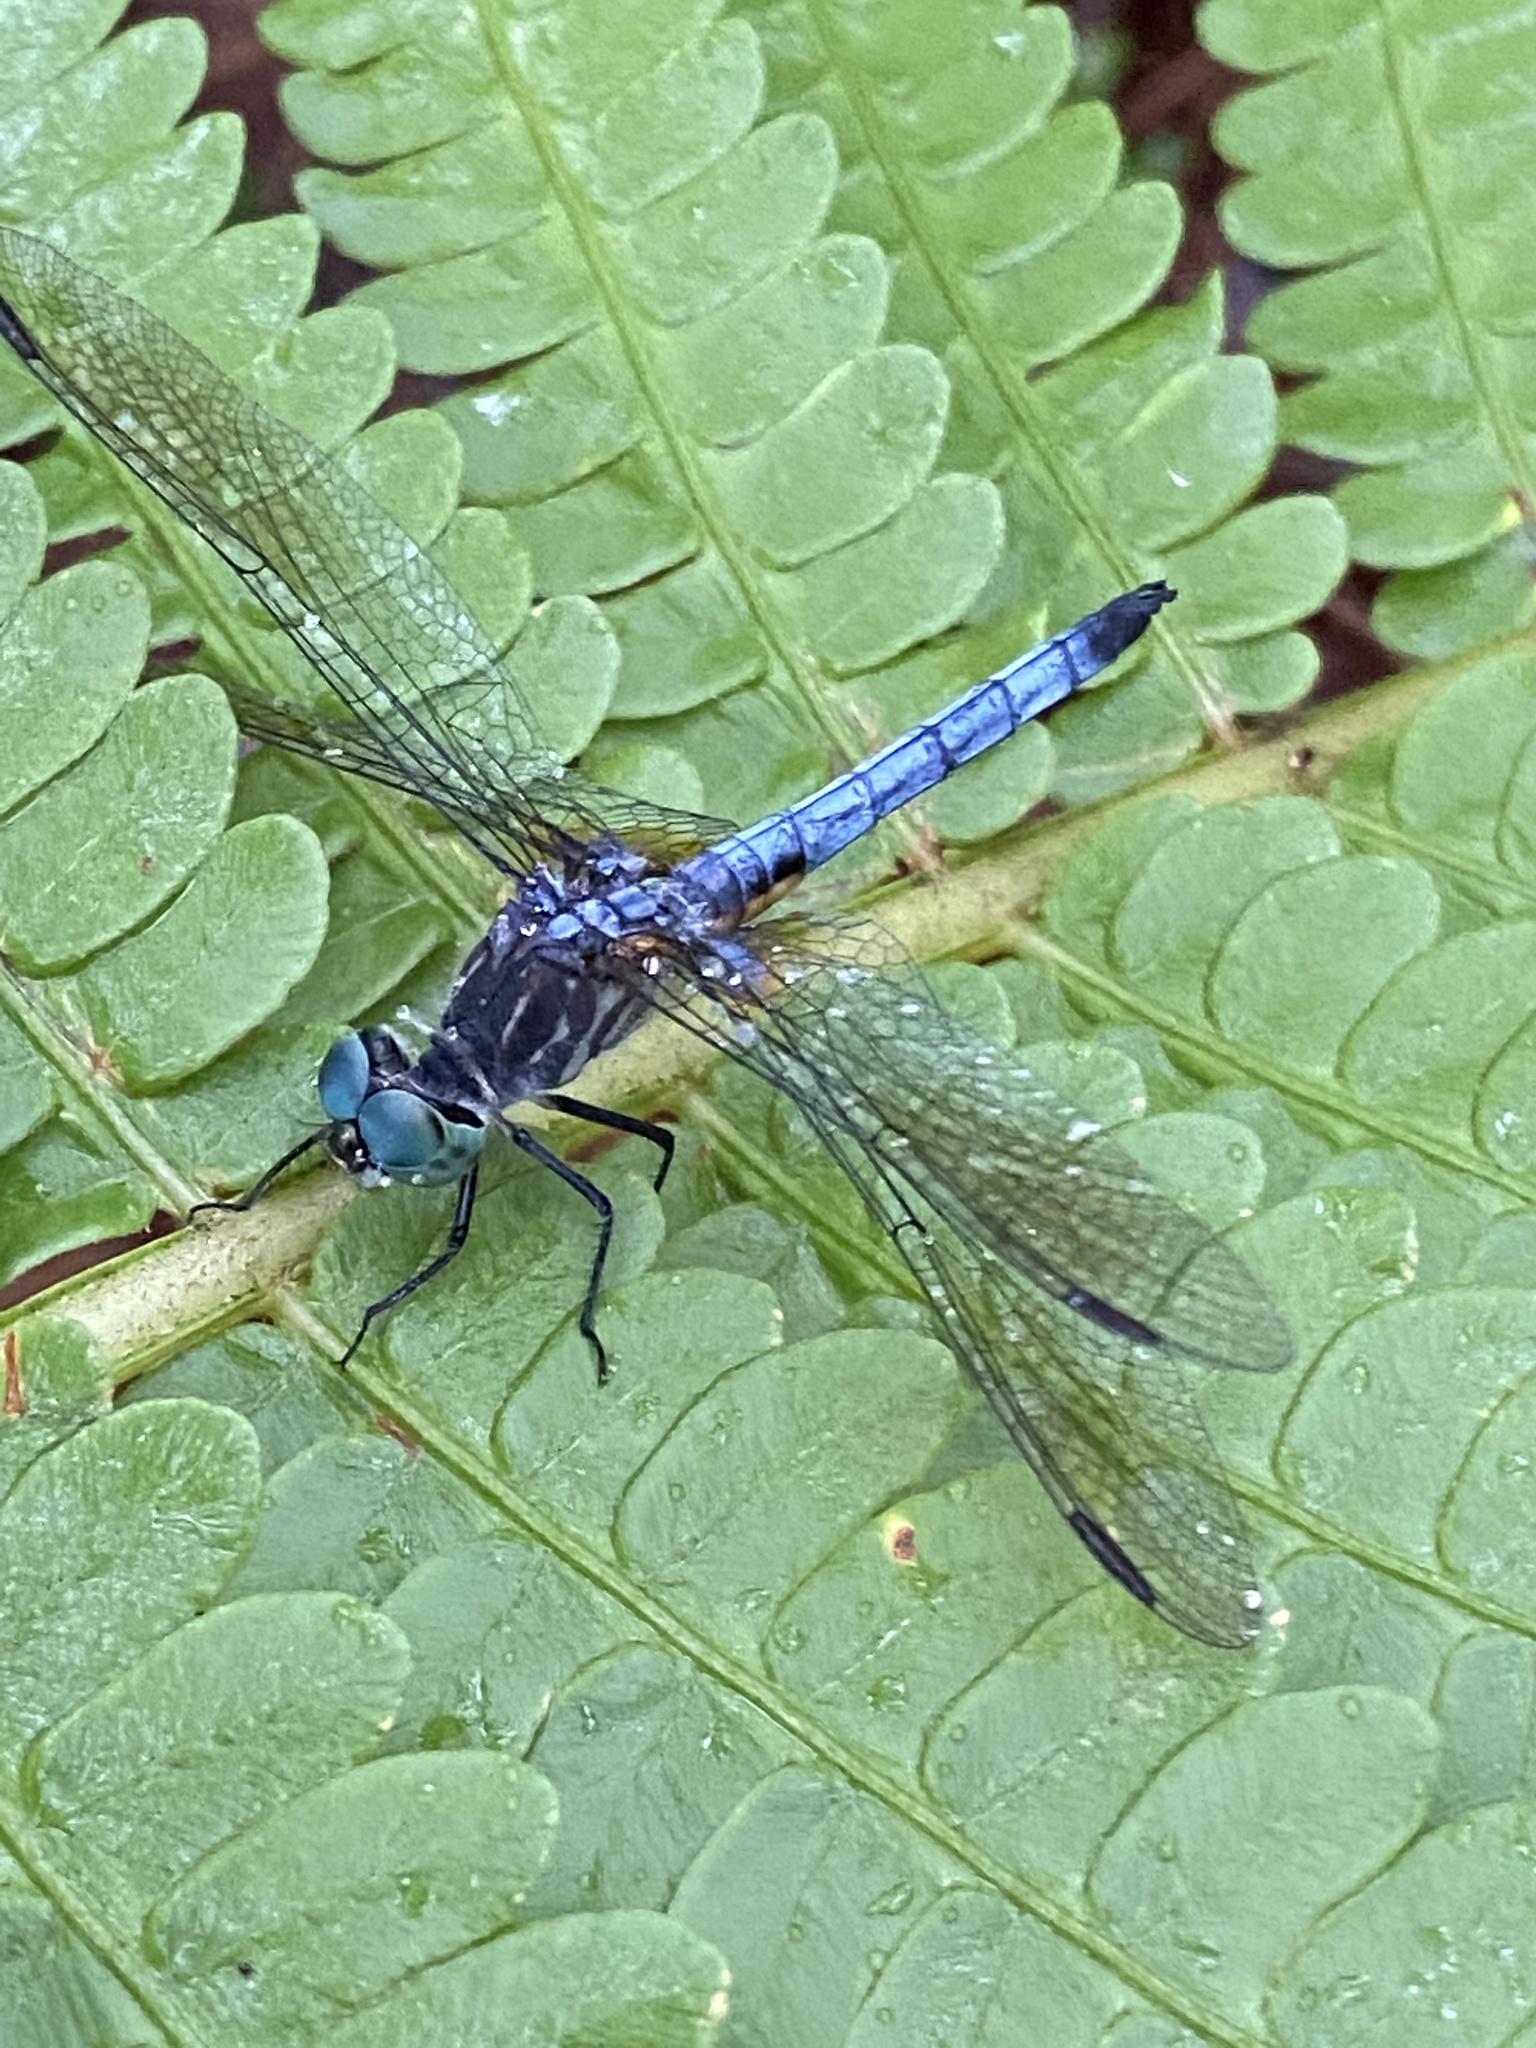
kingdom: Animalia
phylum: Arthropoda
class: Insecta
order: Odonata
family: Libellulidae
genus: Pachydiplax
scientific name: Pachydiplax longipennis
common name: Blue dasher
